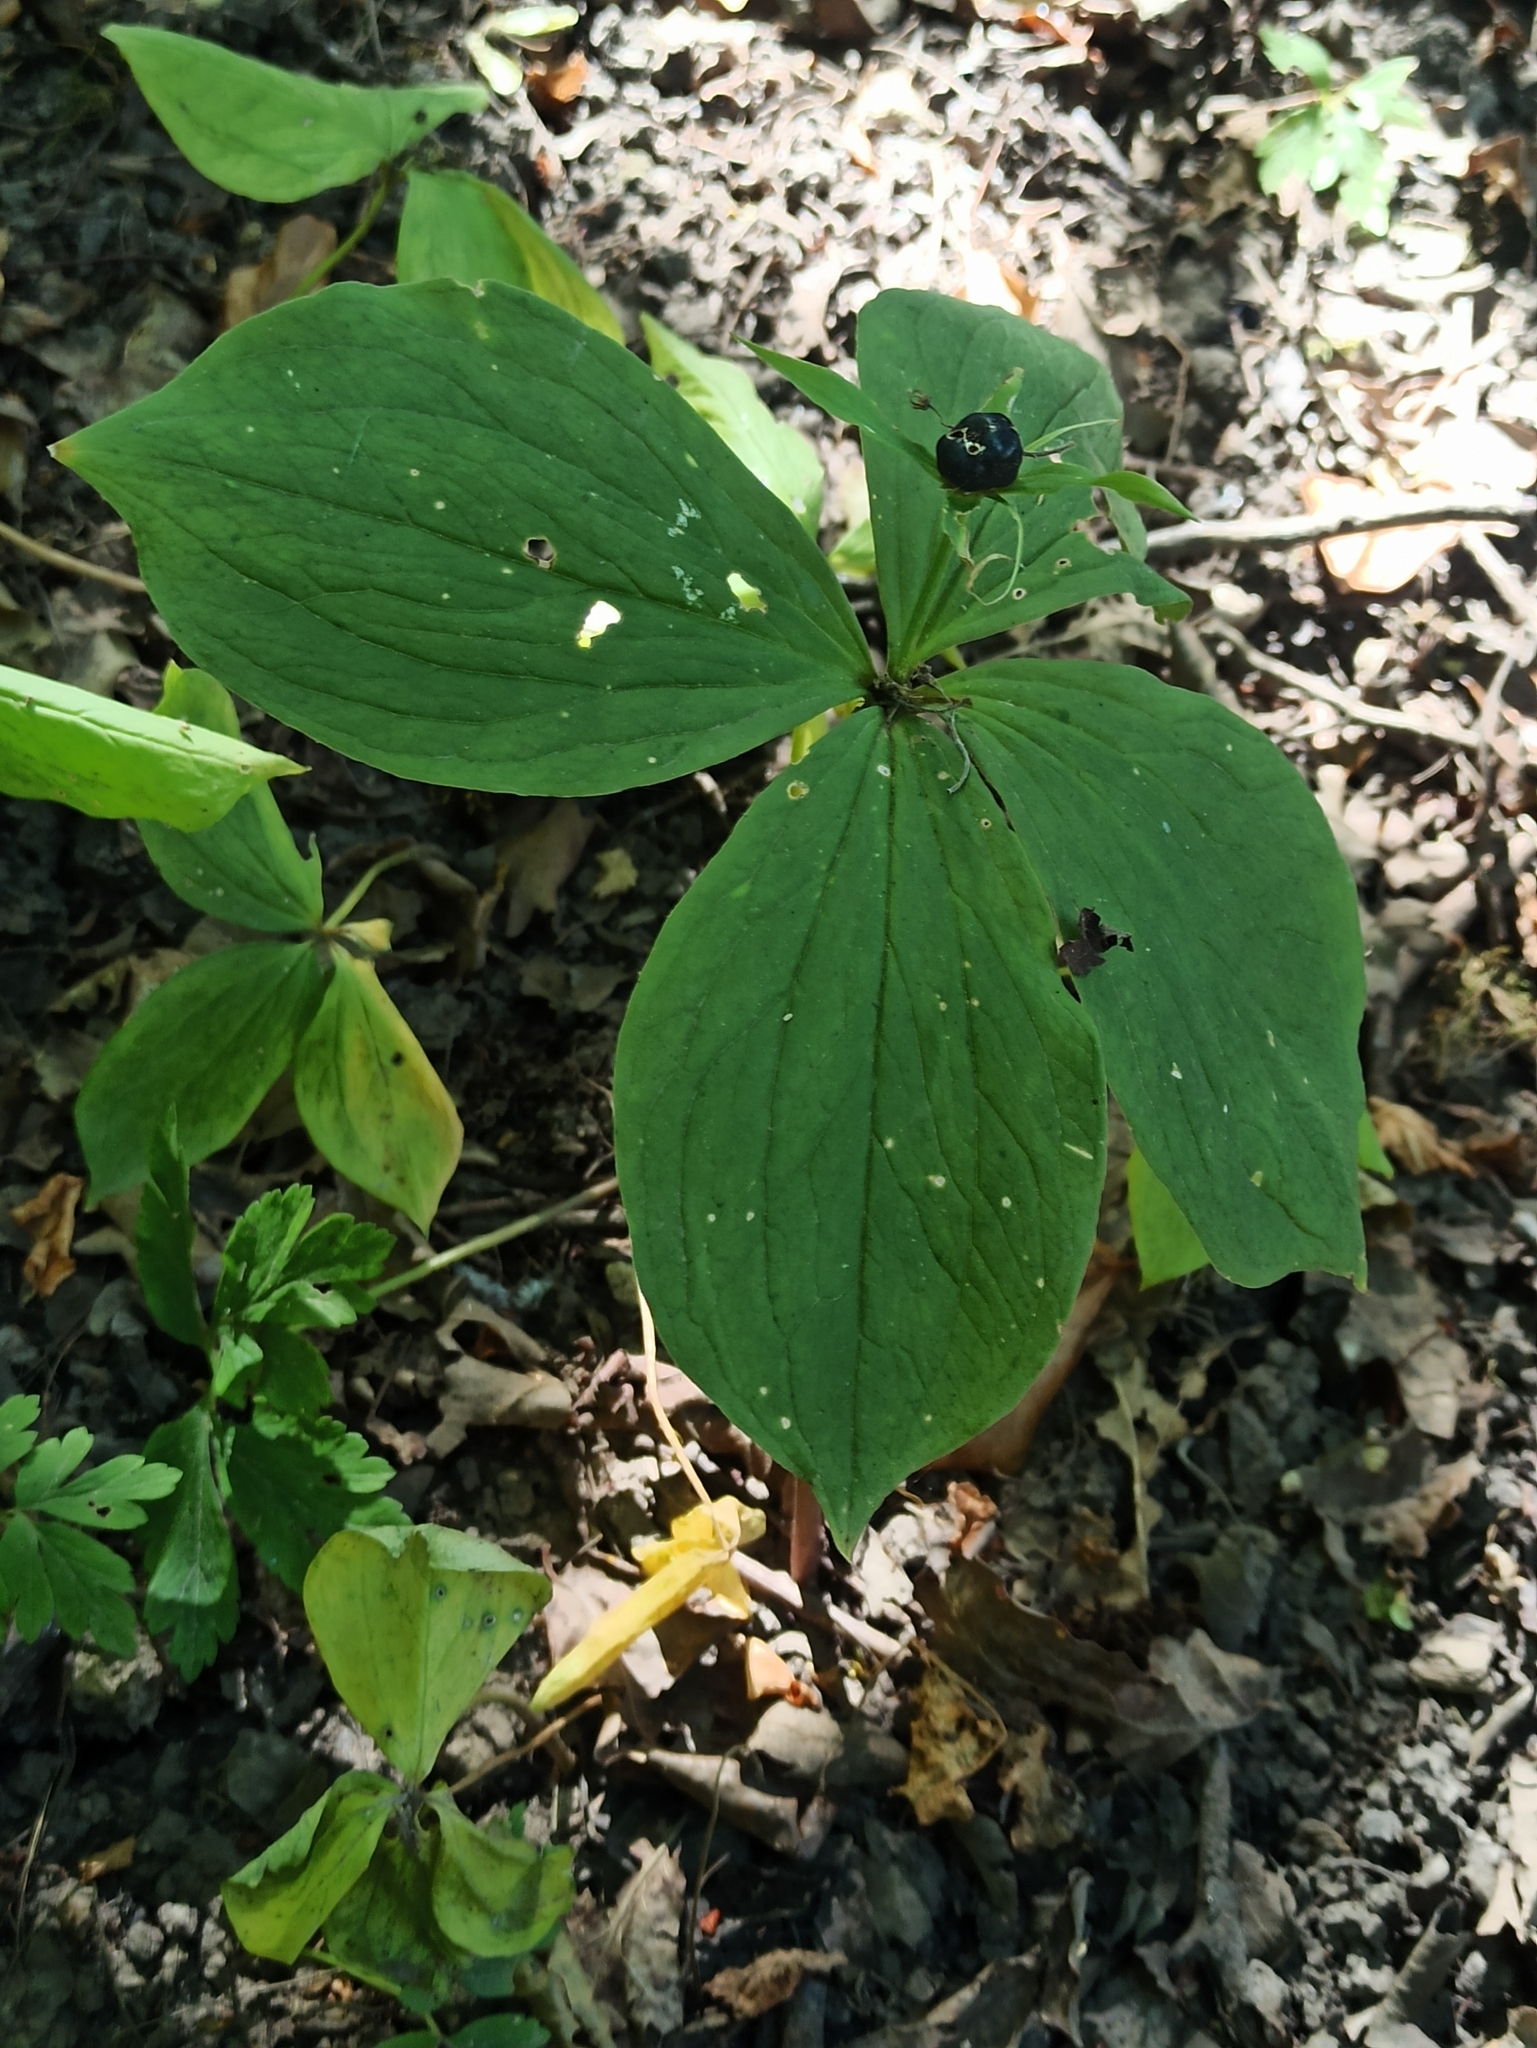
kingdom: Plantae
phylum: Tracheophyta
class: Liliopsida
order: Liliales
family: Melanthiaceae
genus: Paris
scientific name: Paris quadrifolia
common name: Herb-paris
